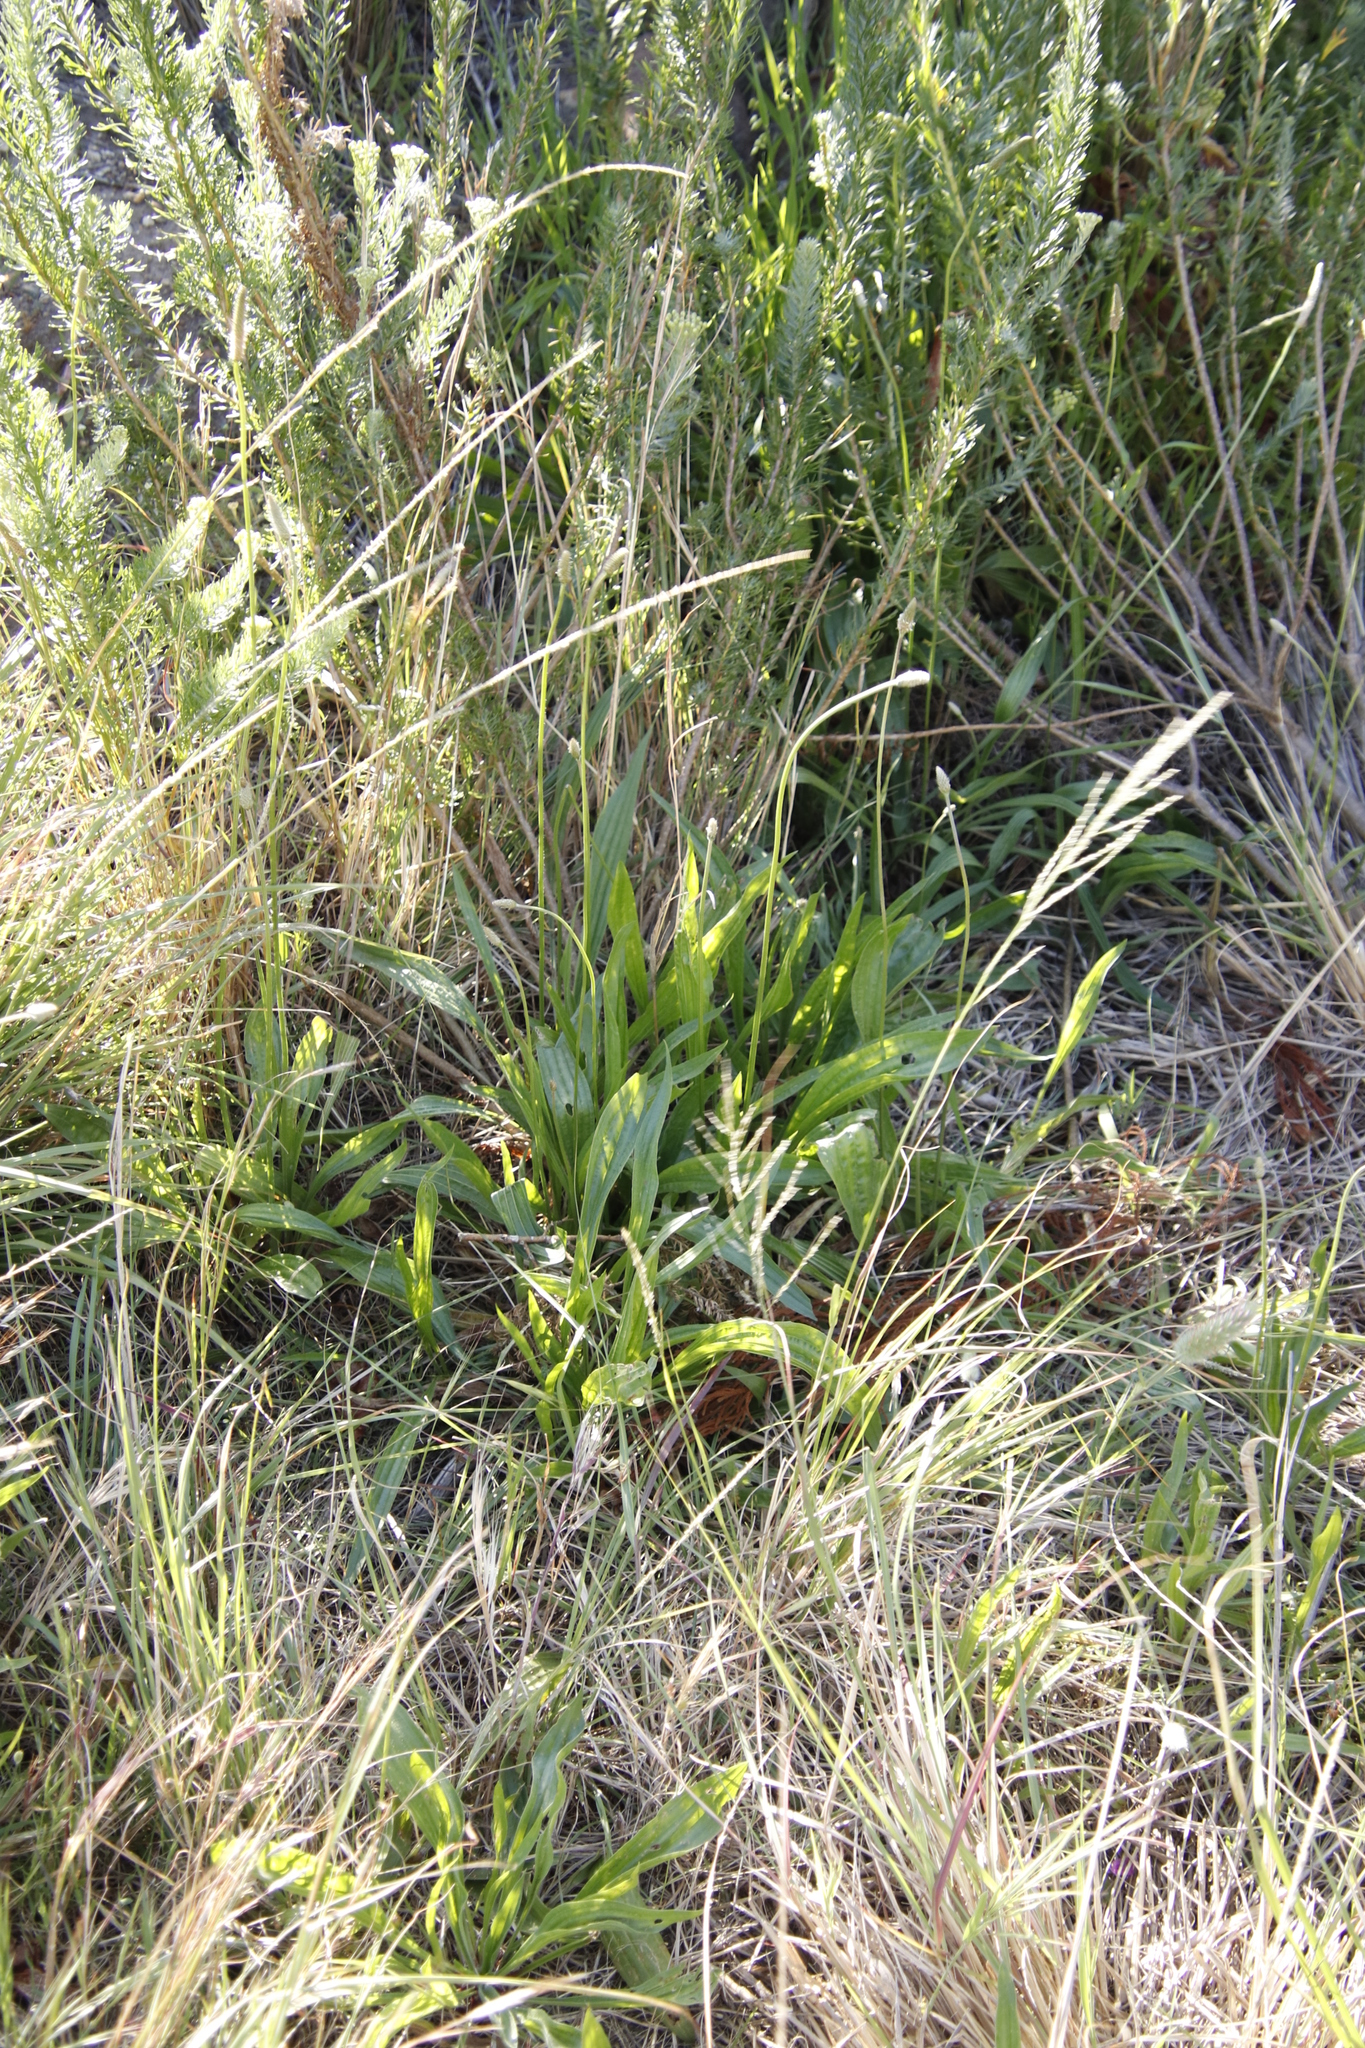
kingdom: Plantae
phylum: Tracheophyta
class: Magnoliopsida
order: Lamiales
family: Plantaginaceae
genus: Plantago
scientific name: Plantago lanceolata
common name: Ribwort plantain
